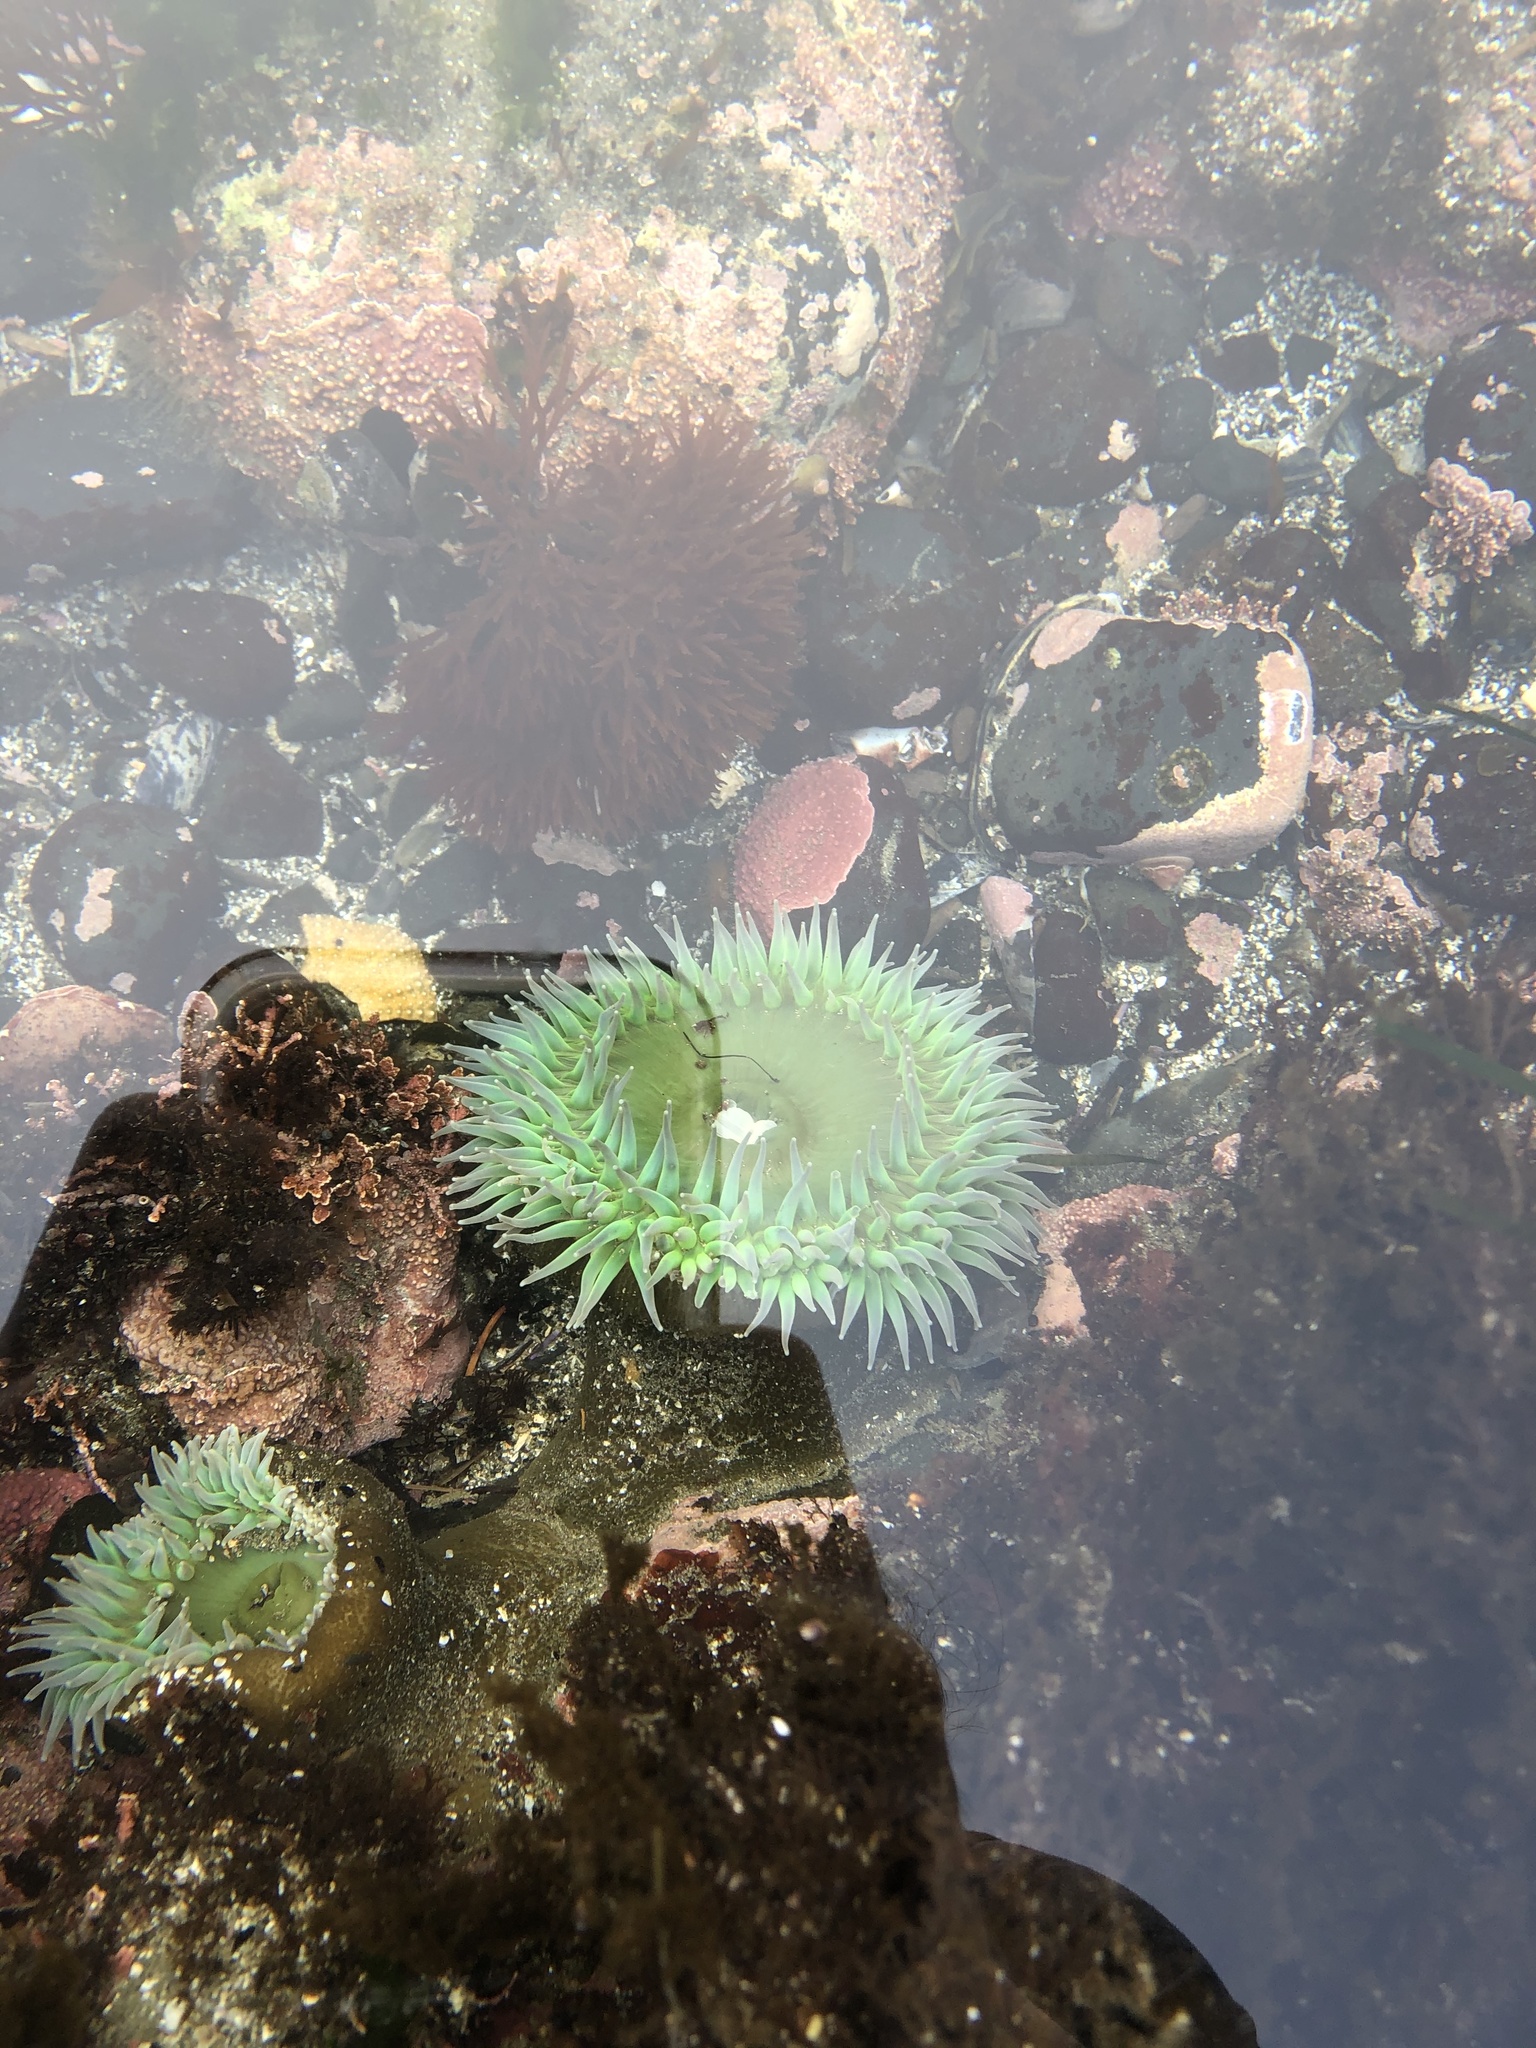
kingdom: Animalia
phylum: Cnidaria
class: Anthozoa
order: Actiniaria
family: Actiniidae
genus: Anthopleura
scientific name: Anthopleura xanthogrammica
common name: Giant green anemone
